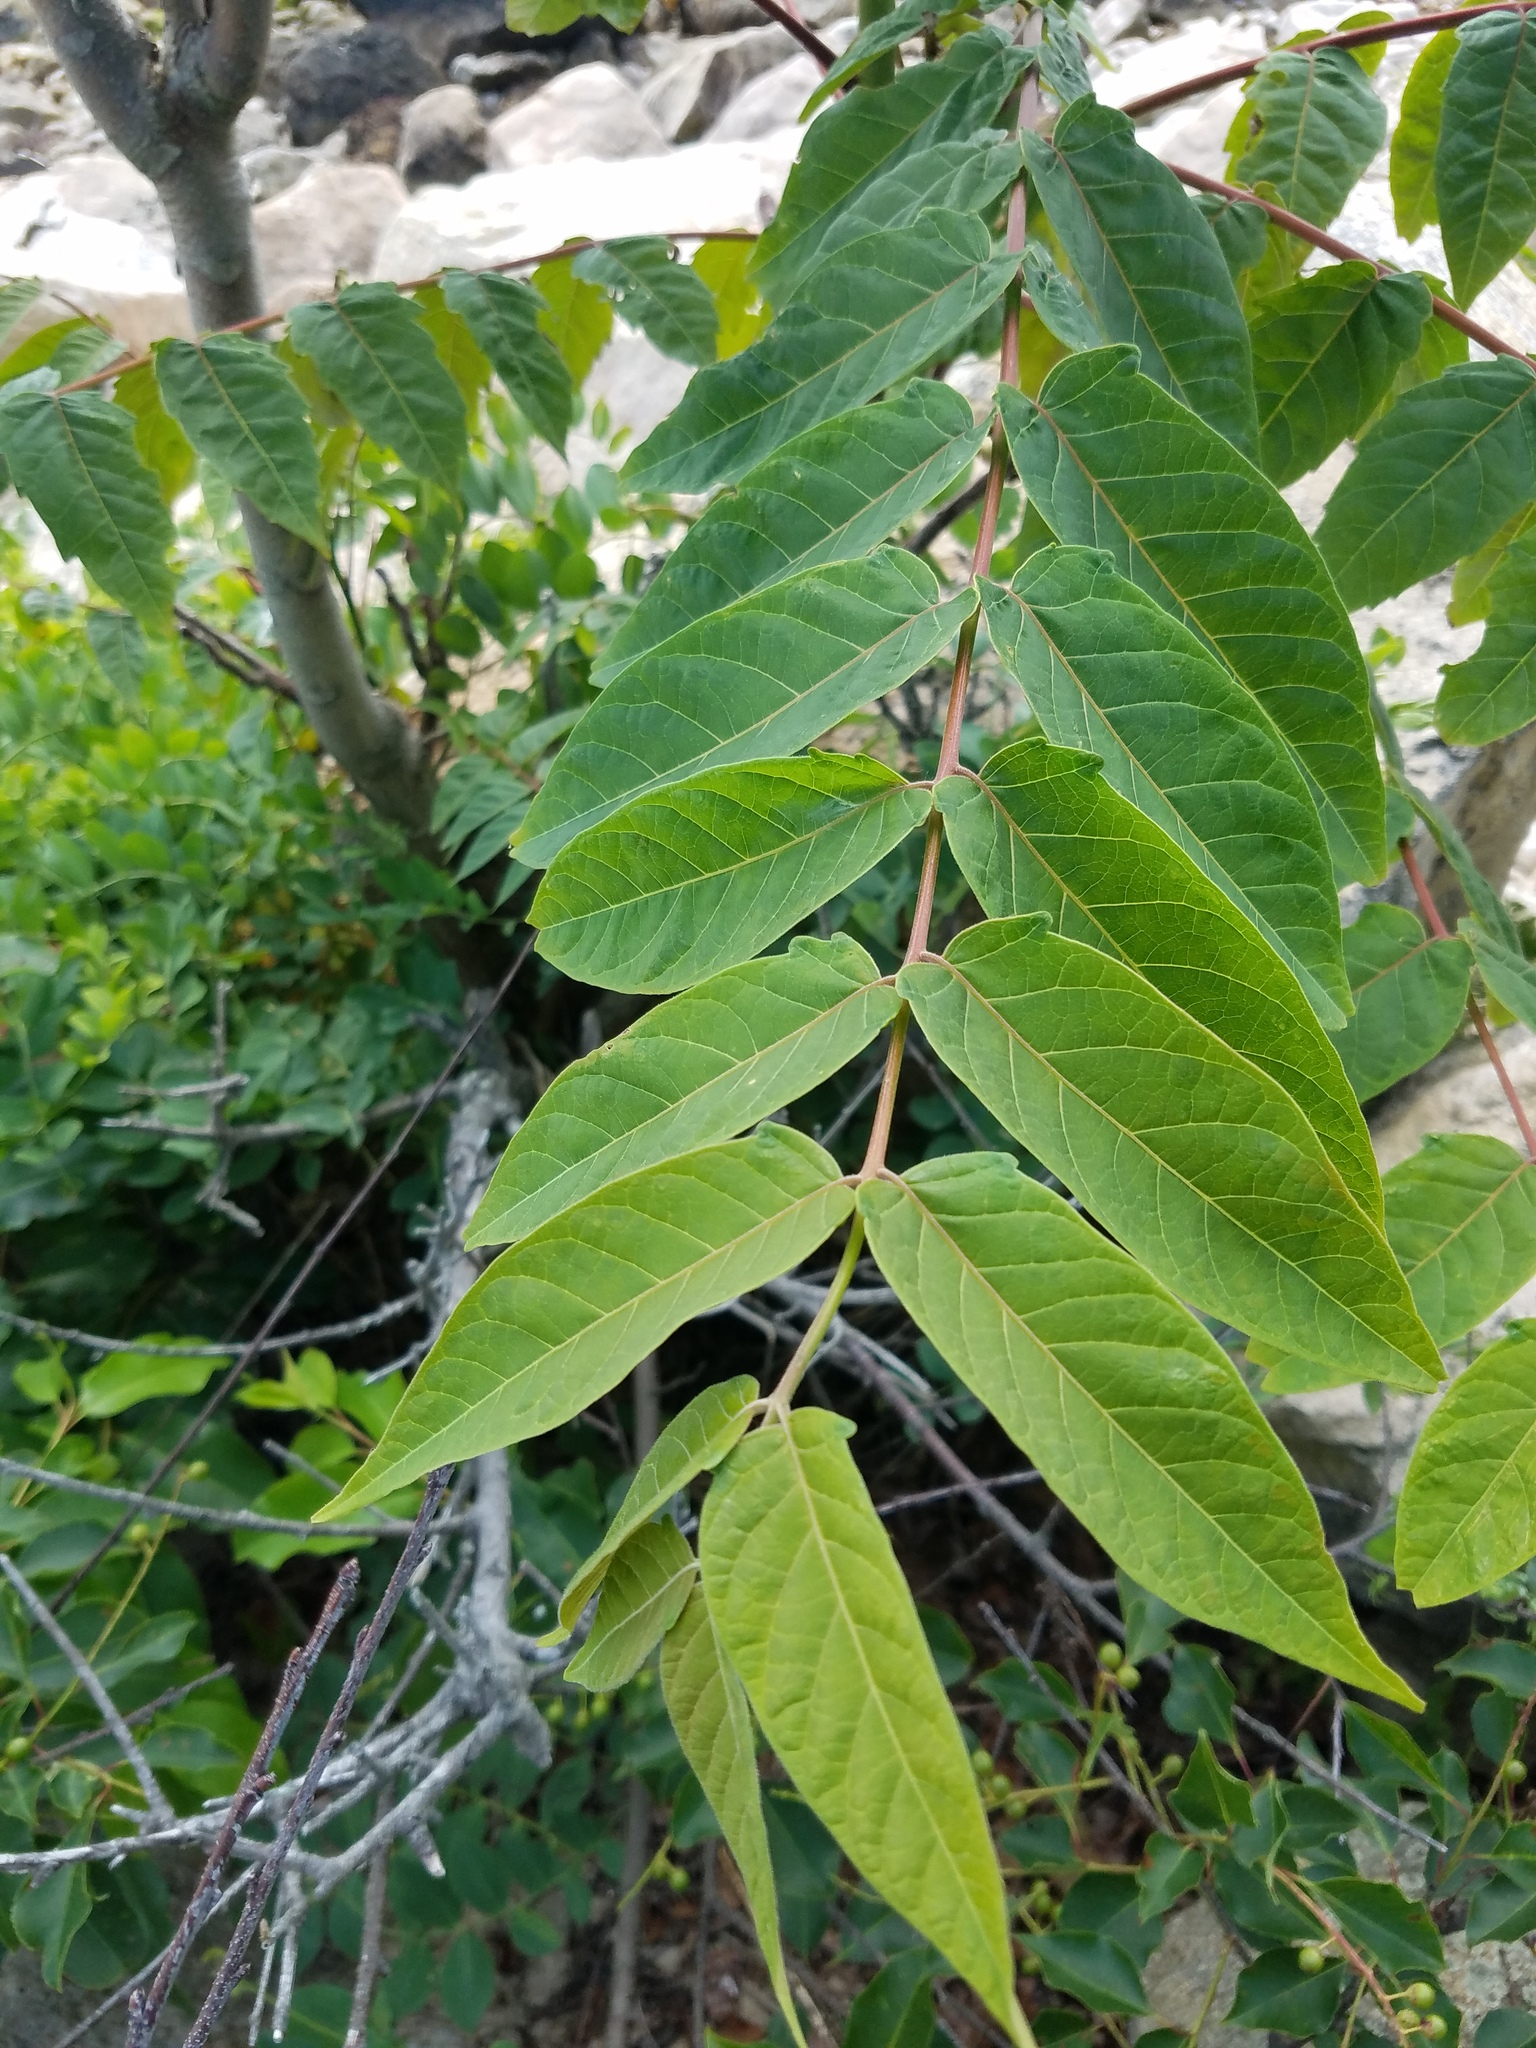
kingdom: Plantae
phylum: Tracheophyta
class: Magnoliopsida
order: Sapindales
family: Simaroubaceae
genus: Ailanthus
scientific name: Ailanthus altissima
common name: Tree-of-heaven
